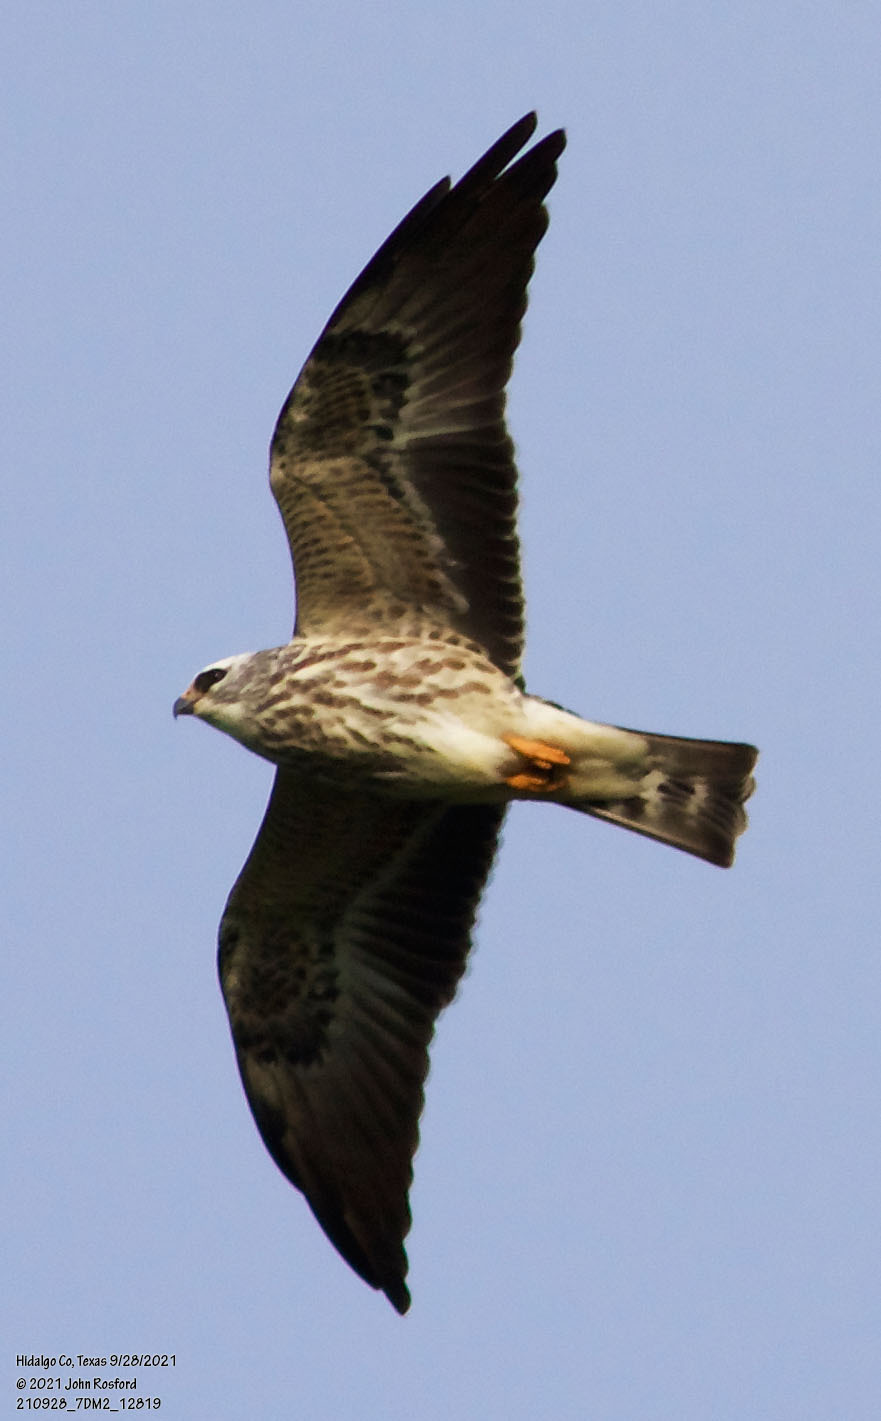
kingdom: Animalia
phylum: Chordata
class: Aves
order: Accipitriformes
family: Accipitridae
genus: Ictinia
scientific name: Ictinia mississippiensis
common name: Mississippi kite
